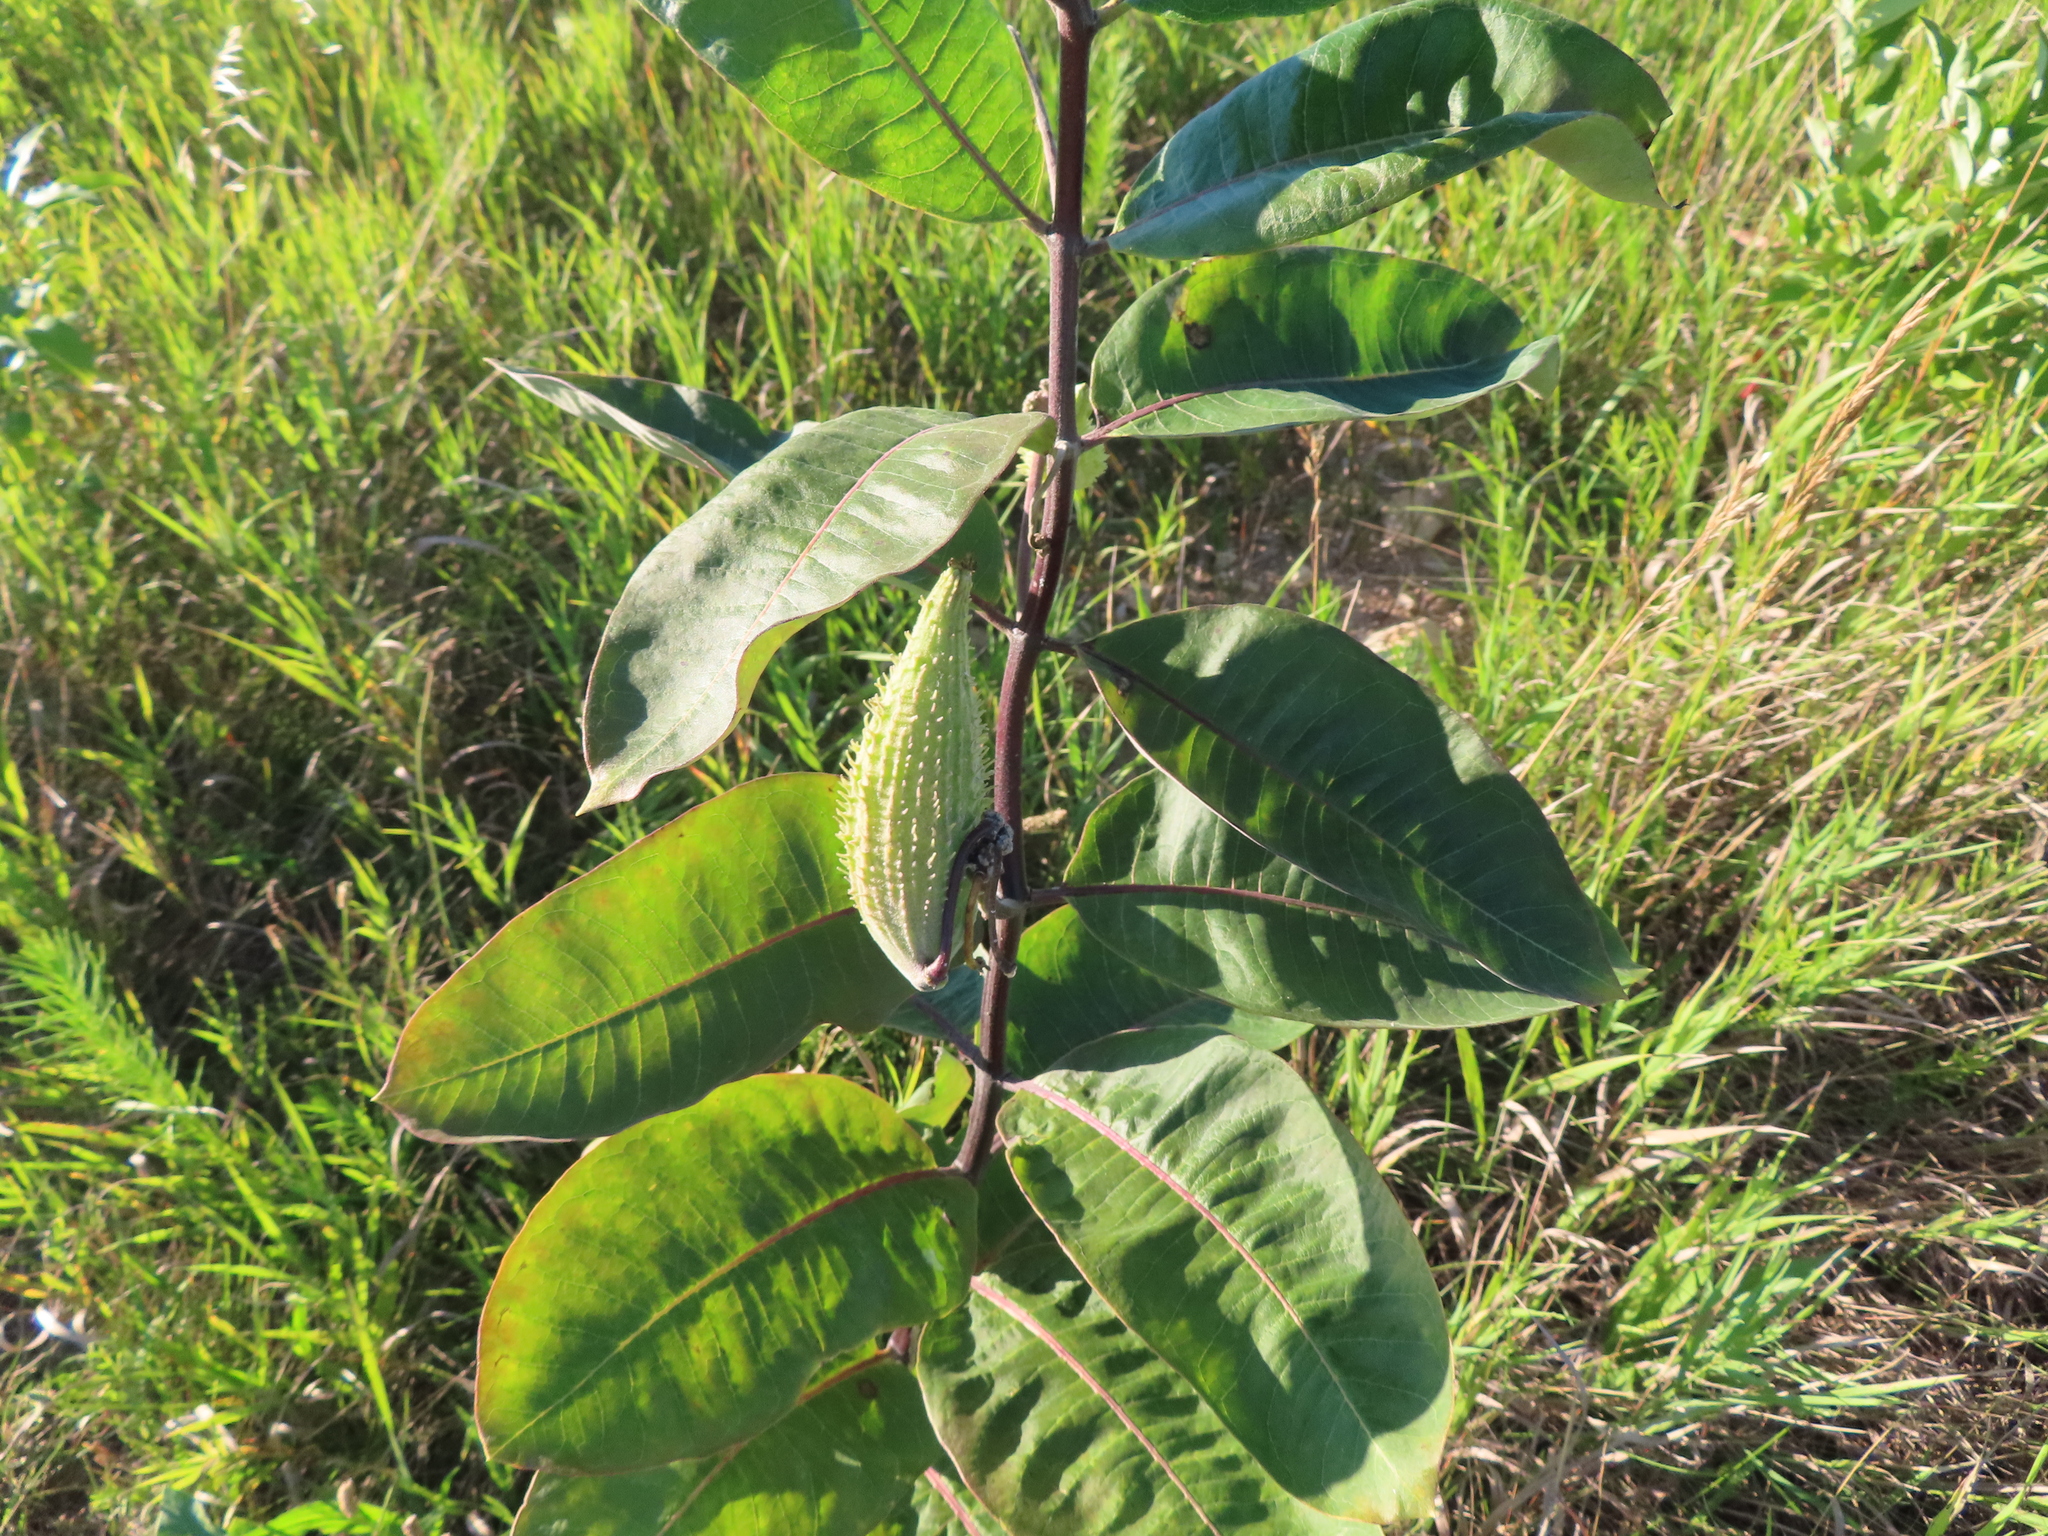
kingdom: Plantae
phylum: Tracheophyta
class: Magnoliopsida
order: Gentianales
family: Apocynaceae
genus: Asclepias
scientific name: Asclepias syriaca
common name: Common milkweed
